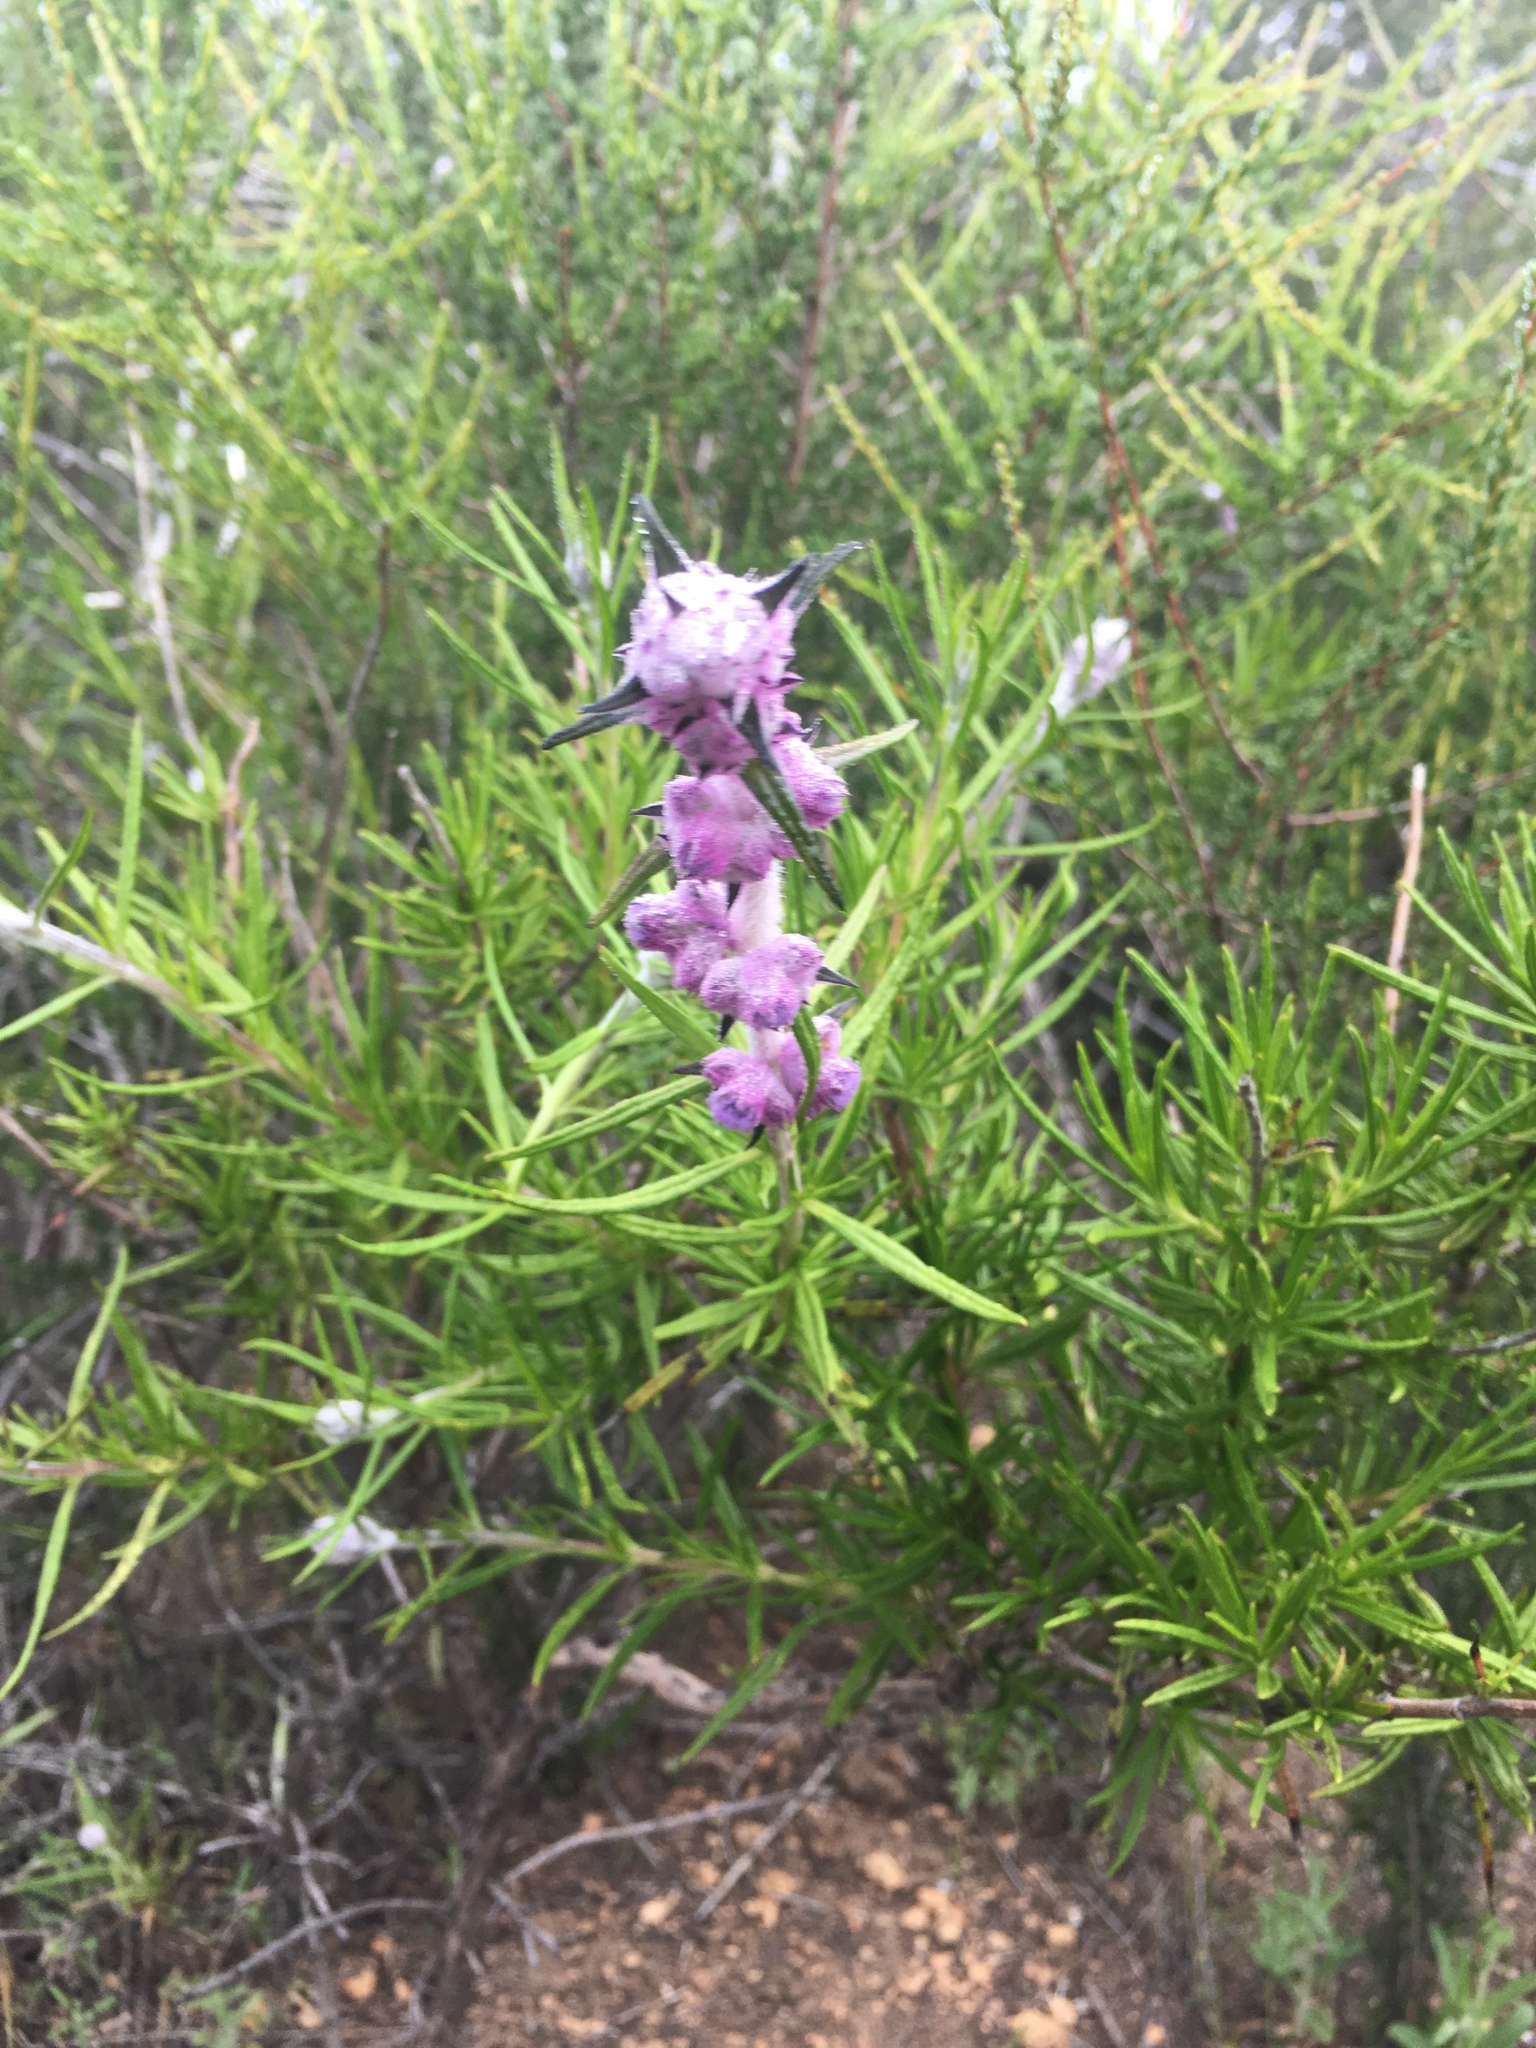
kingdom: Plantae
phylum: Tracheophyta
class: Magnoliopsida
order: Lamiales
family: Lamiaceae
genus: Trichostema
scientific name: Trichostema lanatum
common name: Woolly bluecurls
